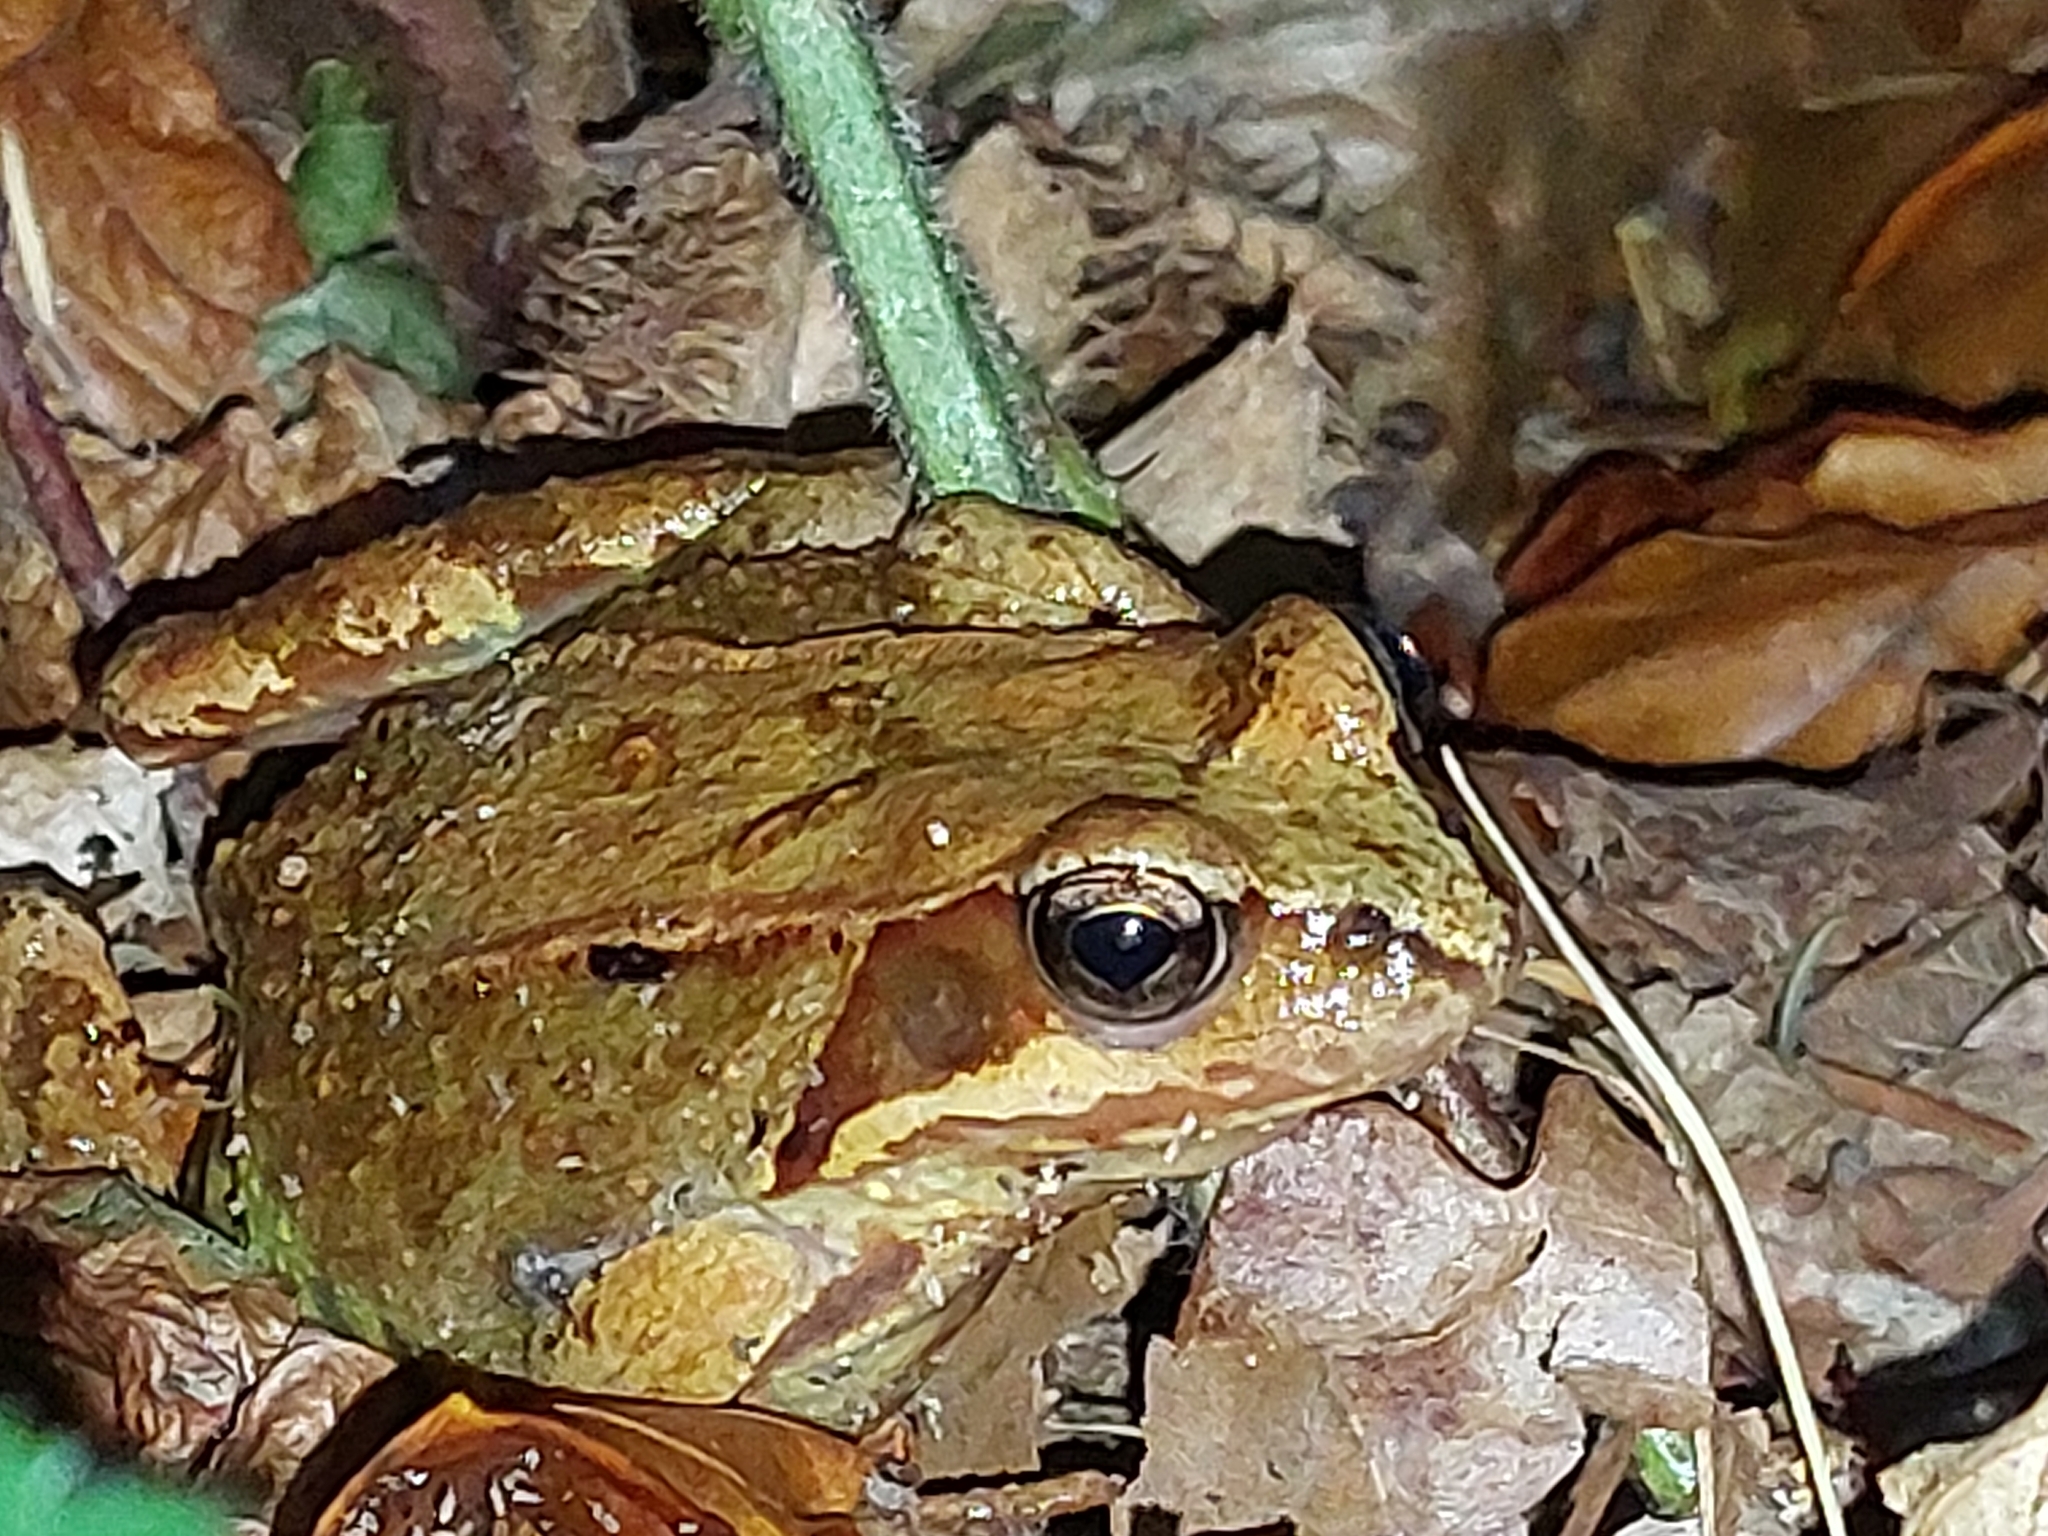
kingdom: Animalia
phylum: Chordata
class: Amphibia
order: Anura
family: Ranidae
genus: Rana
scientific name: Rana temporaria
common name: Common frog
